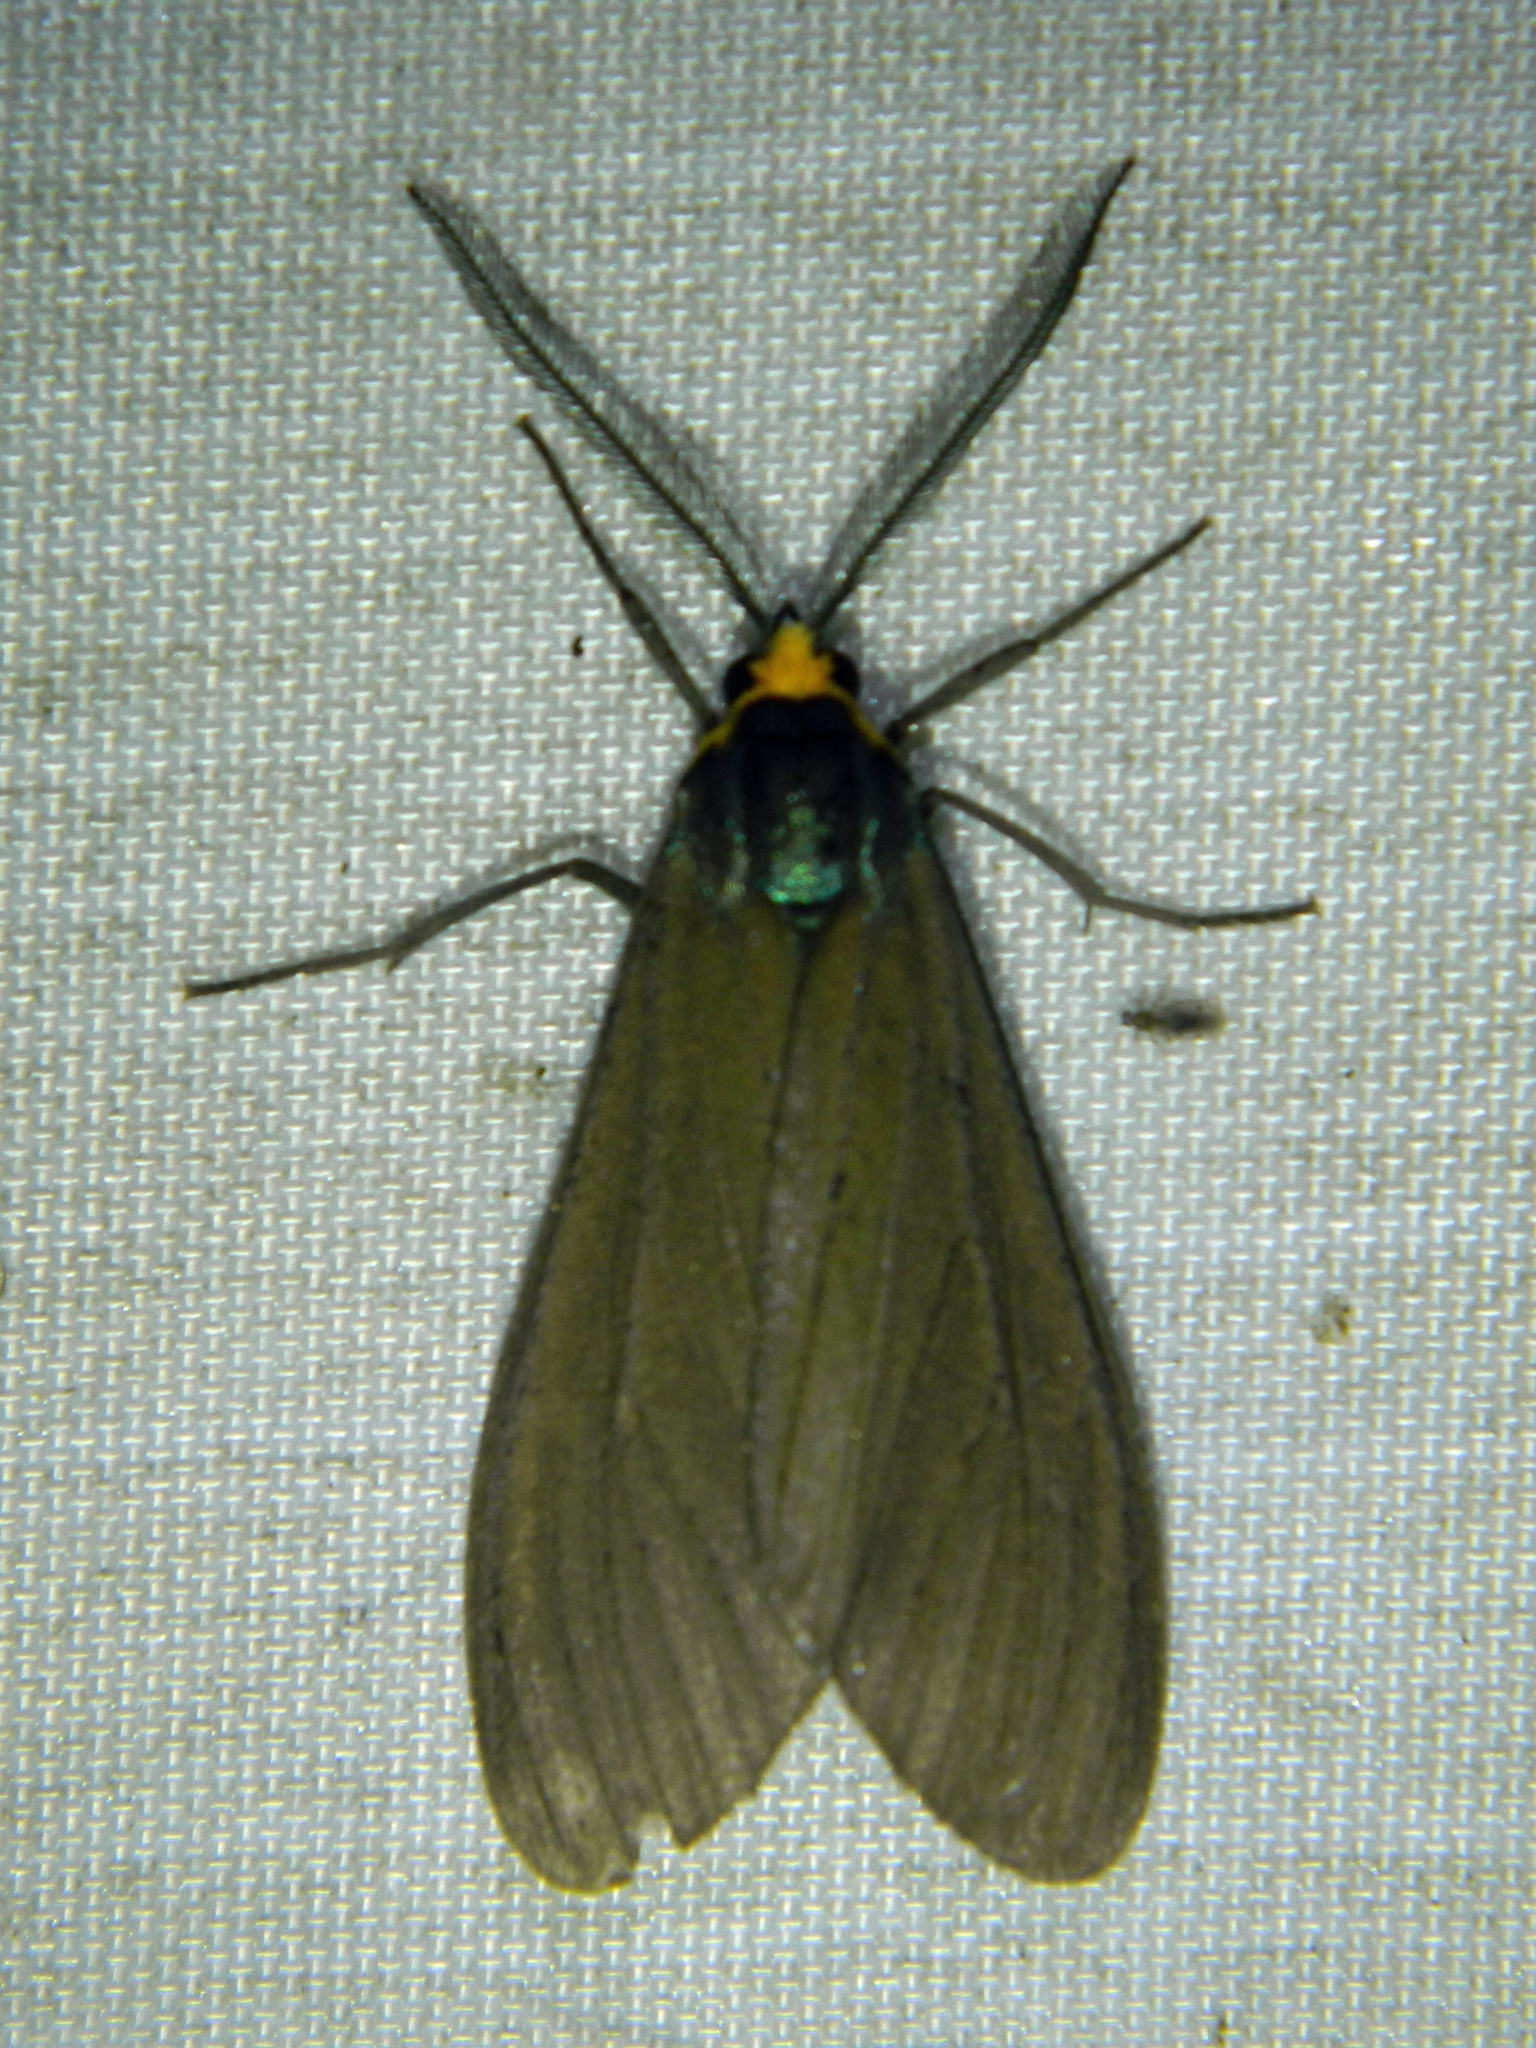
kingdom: Animalia
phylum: Arthropoda
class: Insecta
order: Lepidoptera
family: Erebidae
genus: Ctenucha
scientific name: Ctenucha virginica
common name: Virginia ctenucha moth
